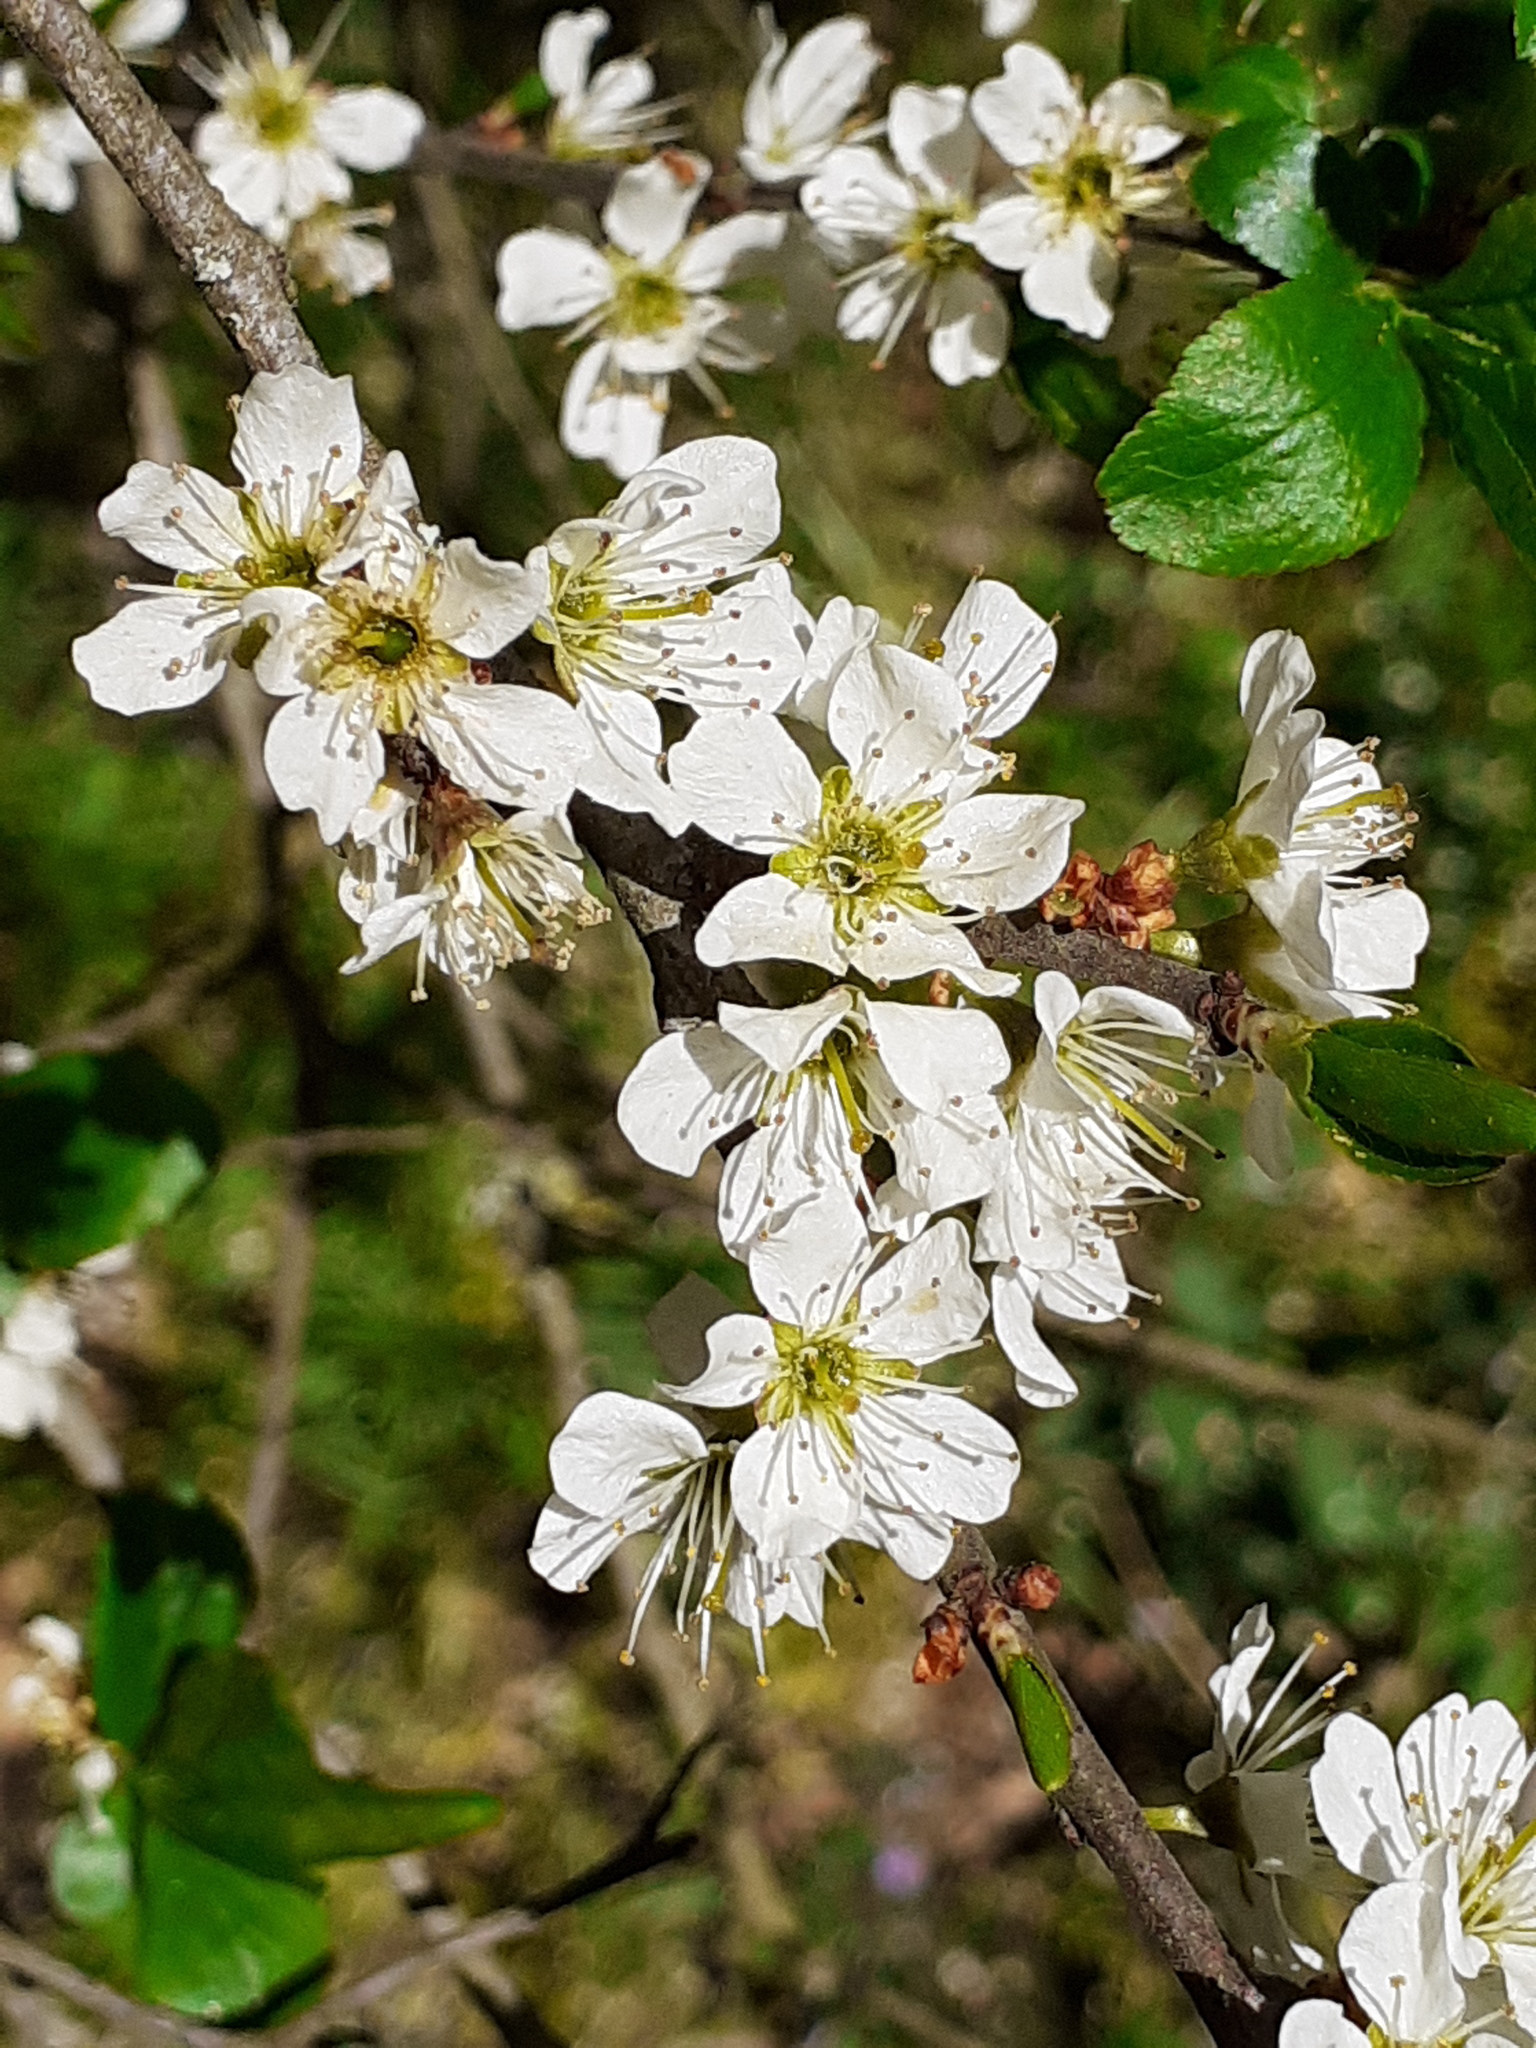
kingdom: Plantae
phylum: Tracheophyta
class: Magnoliopsida
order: Rosales
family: Rosaceae
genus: Prunus
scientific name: Prunus spinosa
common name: Blackthorn
